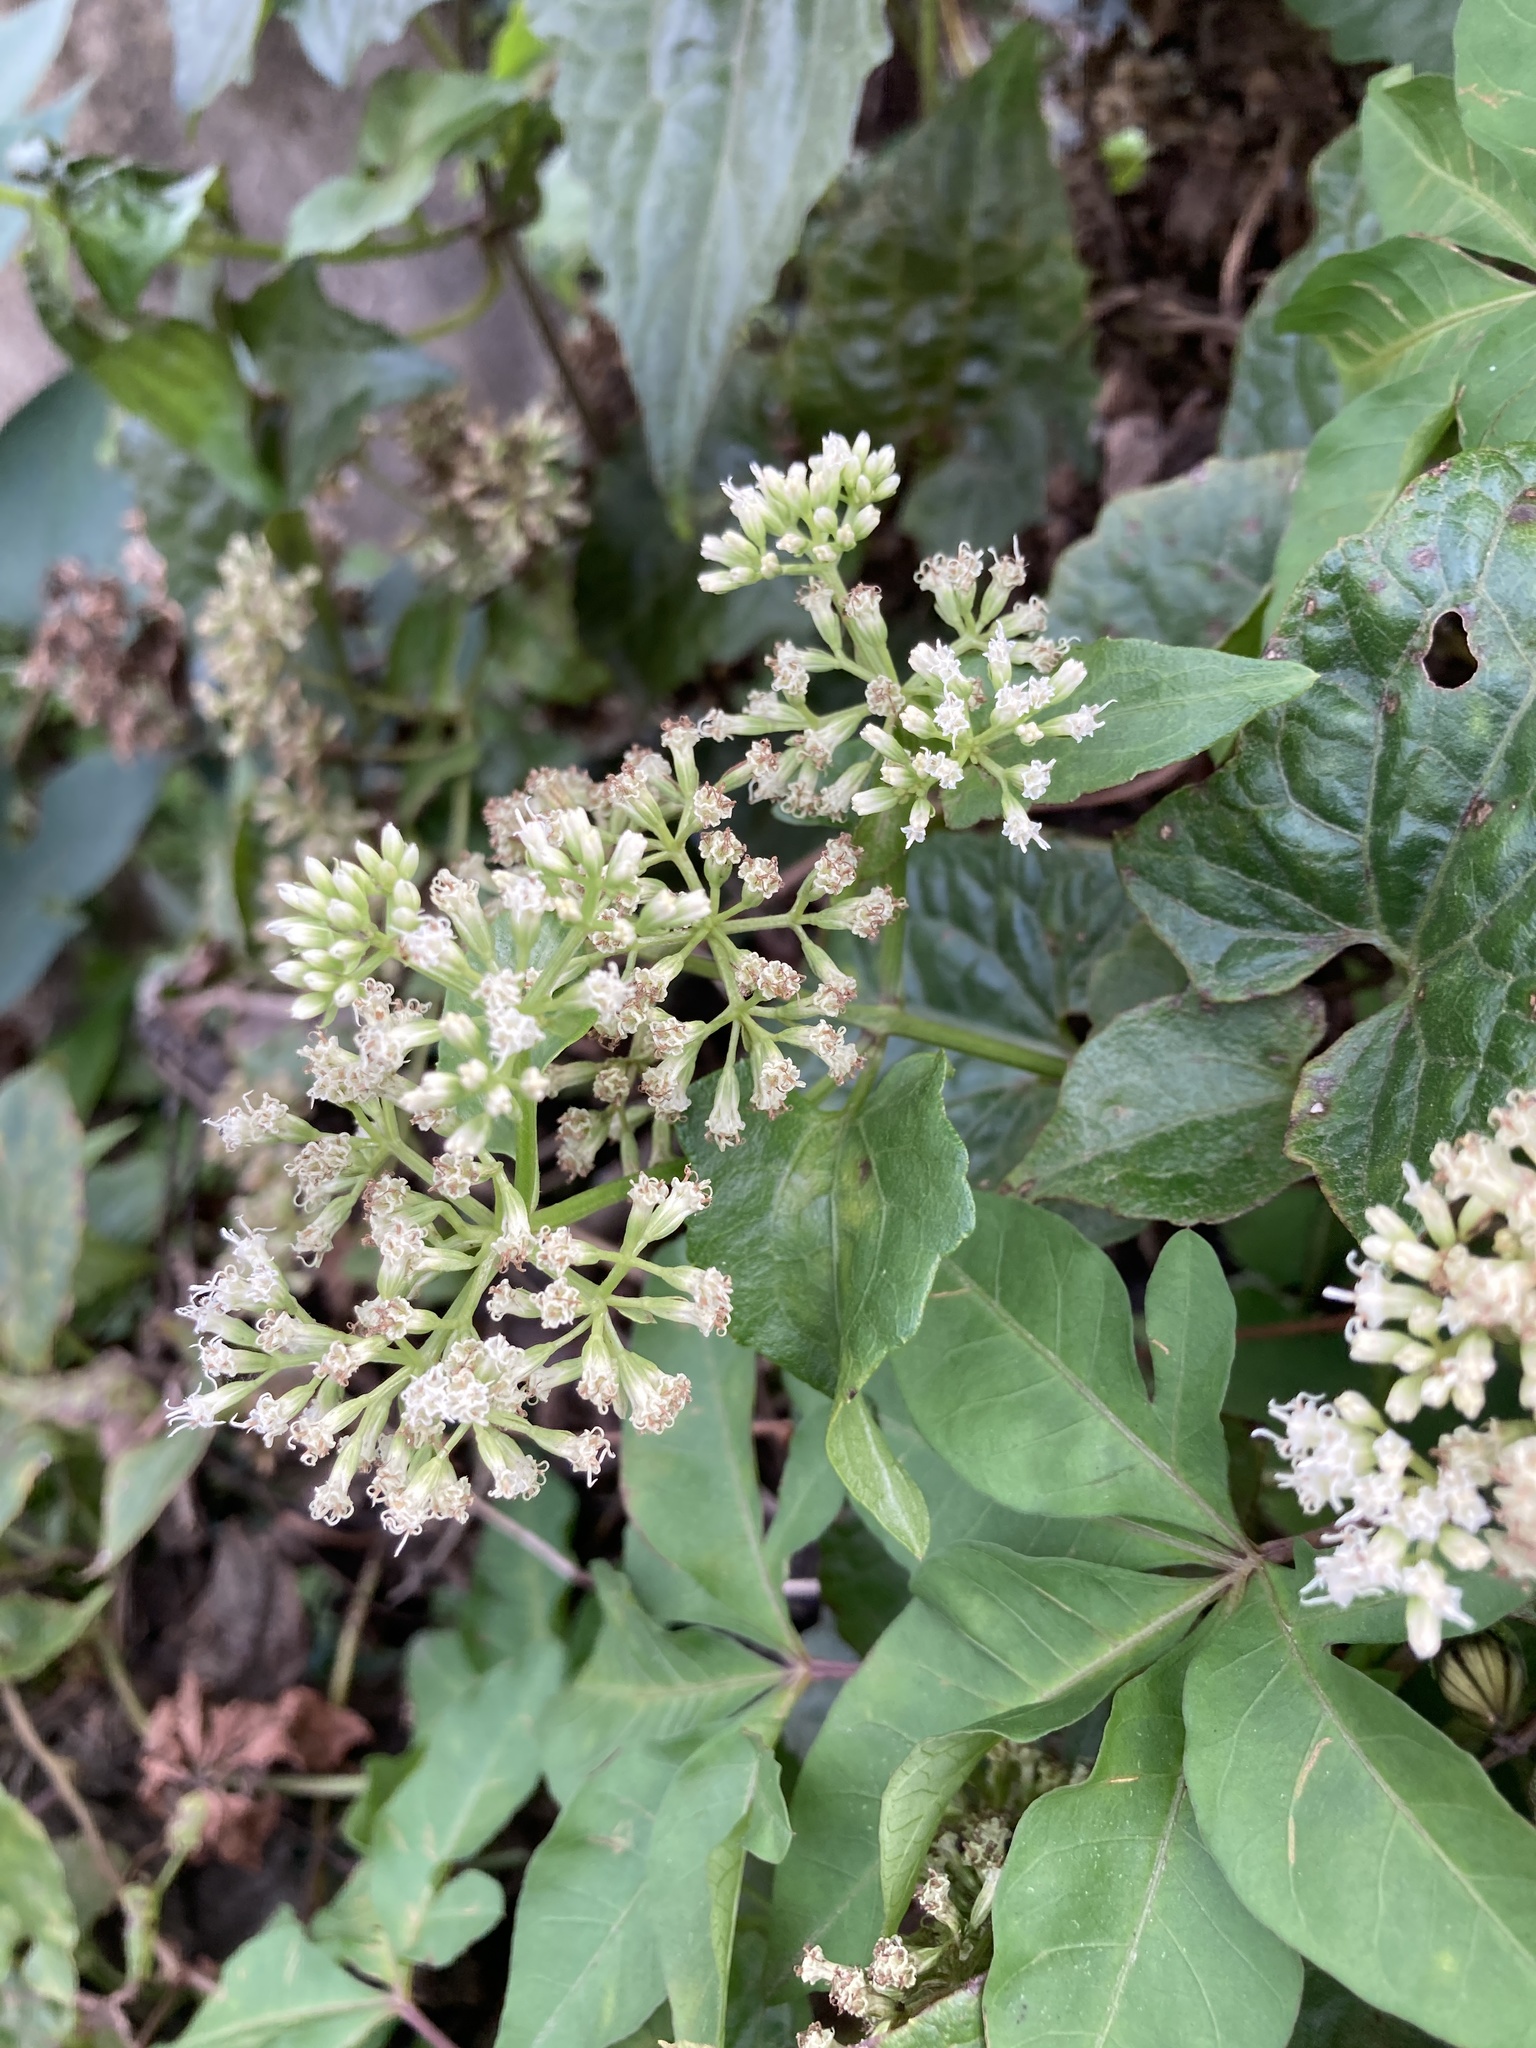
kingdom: Plantae
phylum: Tracheophyta
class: Magnoliopsida
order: Asterales
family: Asteraceae
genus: Mikania
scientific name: Mikania micrantha
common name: Mile-a-minute
